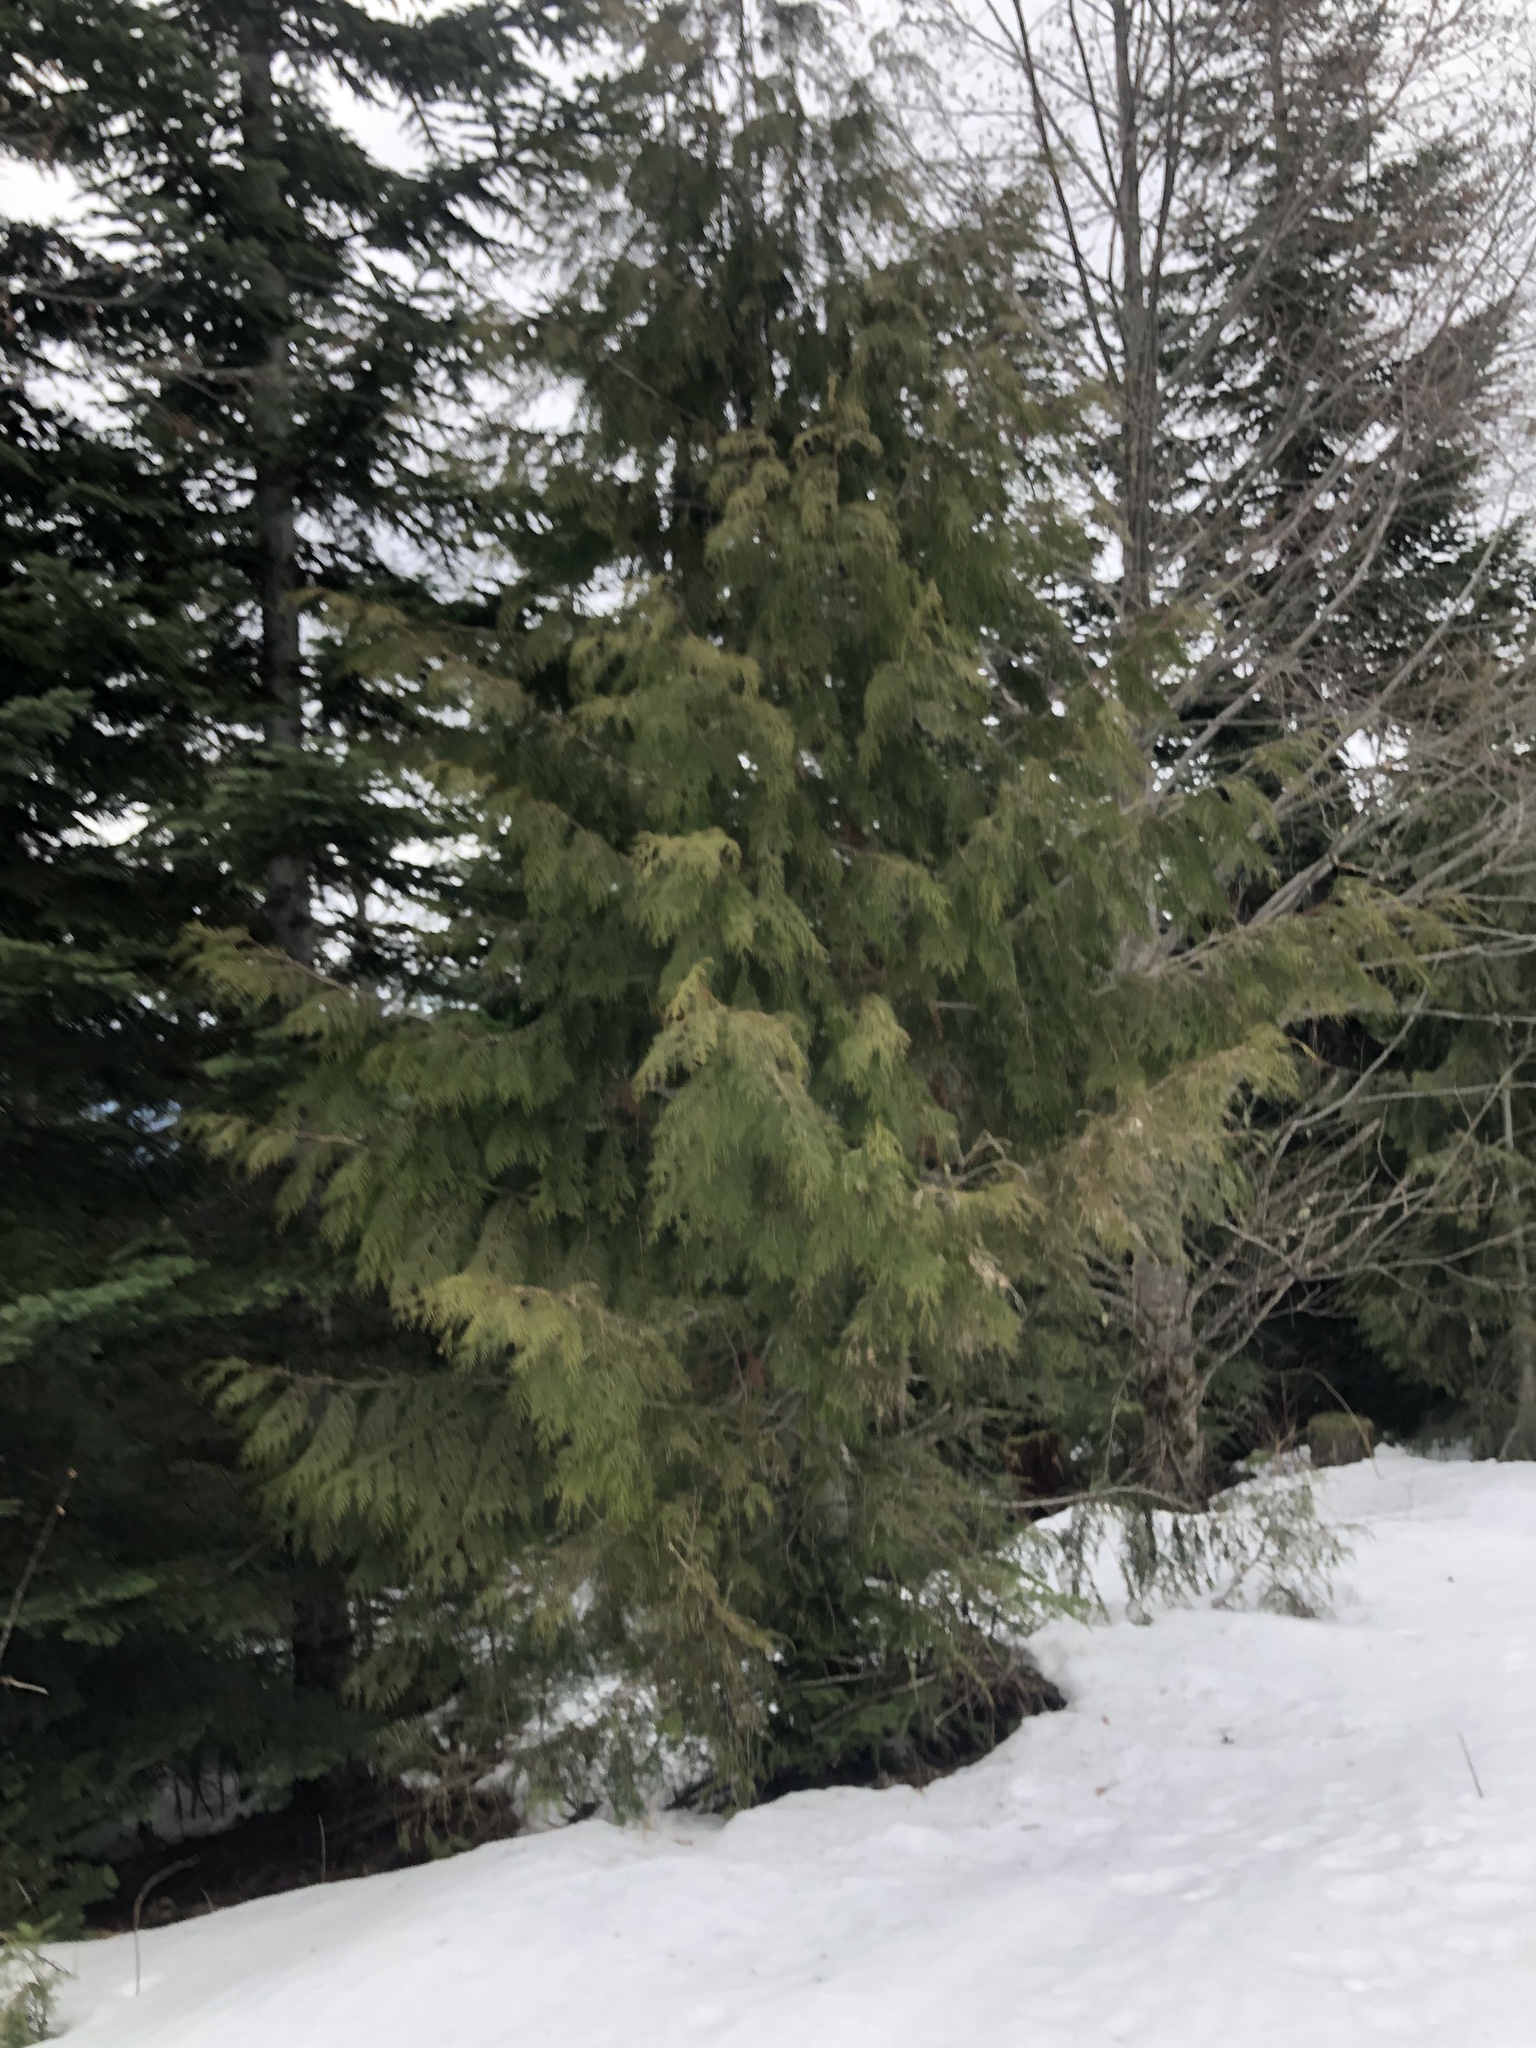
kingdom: Plantae
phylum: Tracheophyta
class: Pinopsida
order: Pinales
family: Cupressaceae
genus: Thuja
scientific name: Thuja plicata
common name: Western red-cedar
